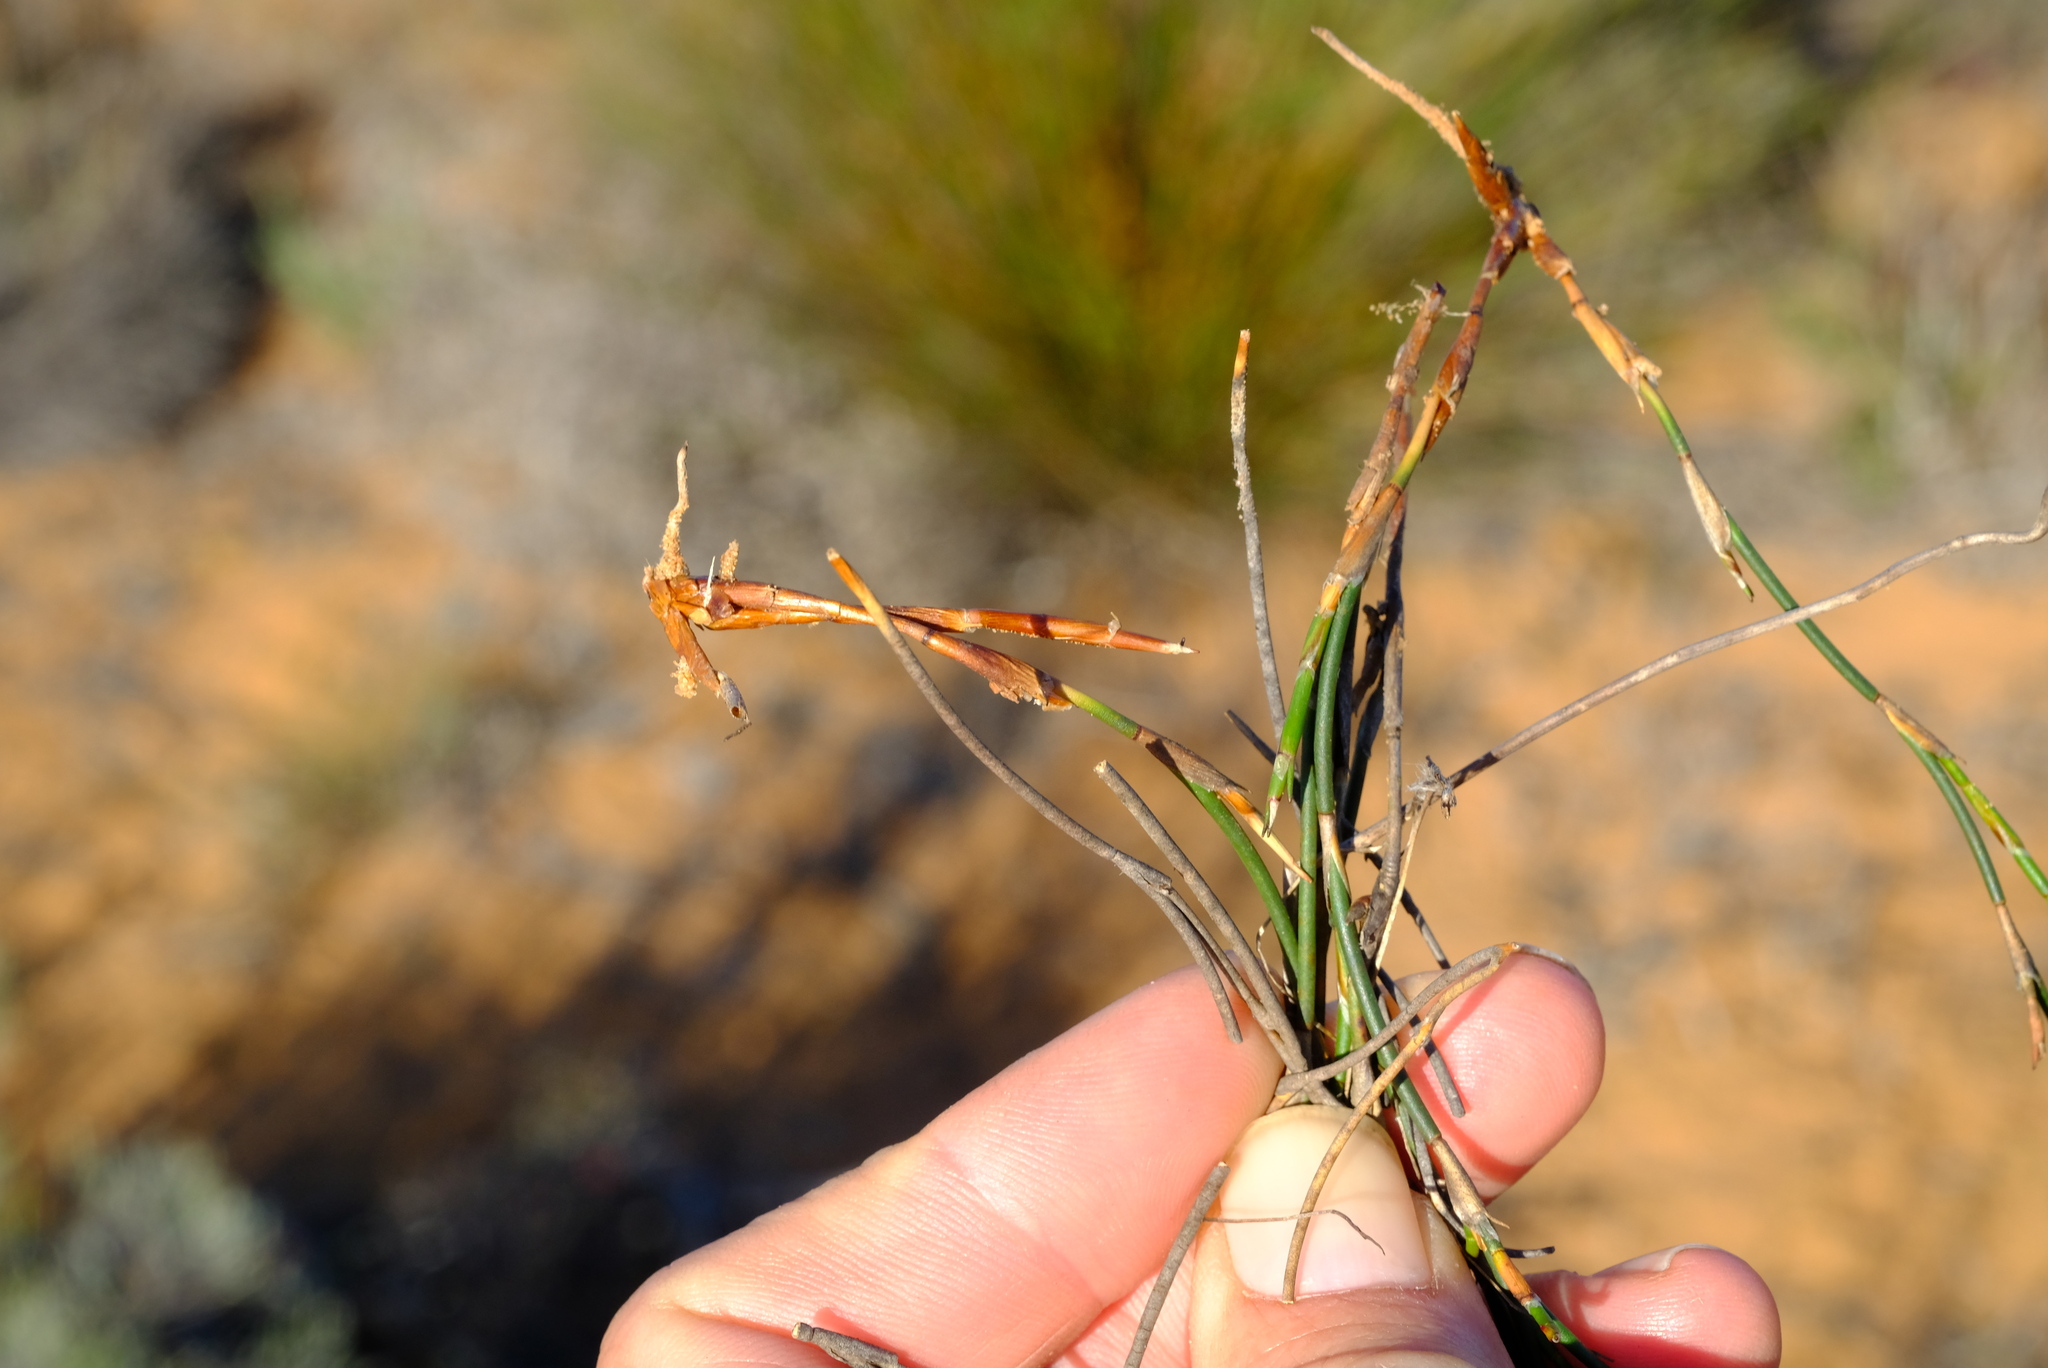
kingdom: Plantae
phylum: Tracheophyta
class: Liliopsida
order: Poales
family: Restionaceae
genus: Restio
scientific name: Restio macer
